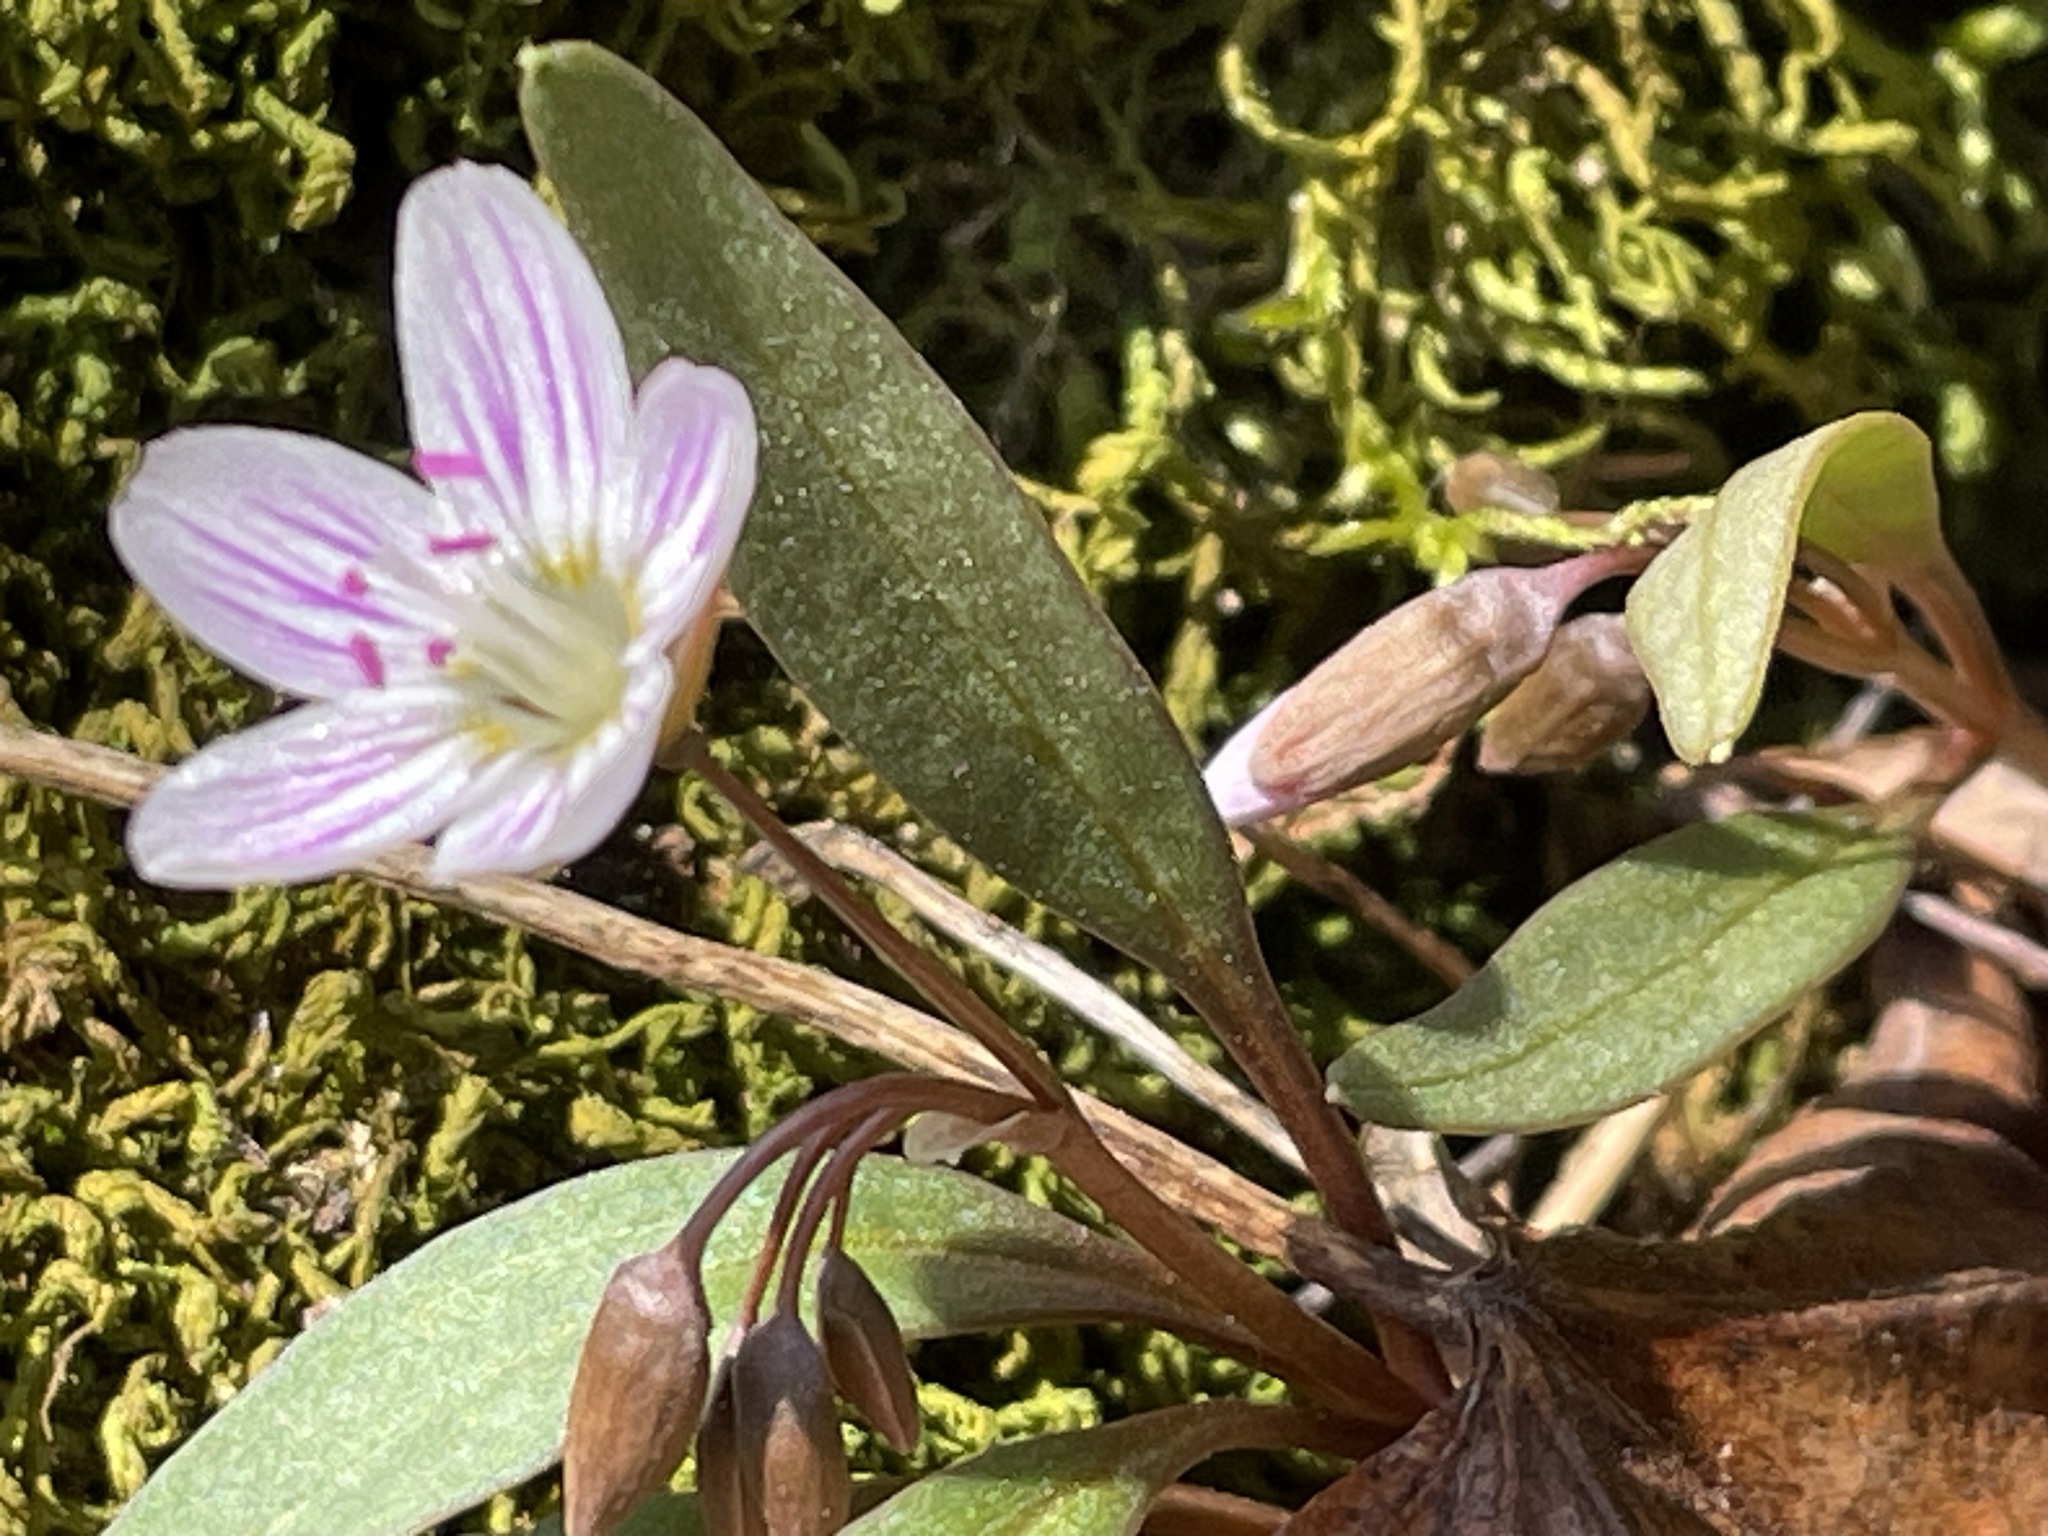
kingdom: Plantae
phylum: Tracheophyta
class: Magnoliopsida
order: Caryophyllales
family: Montiaceae
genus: Claytonia
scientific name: Claytonia caroliniana
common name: Carolina spring beauty
